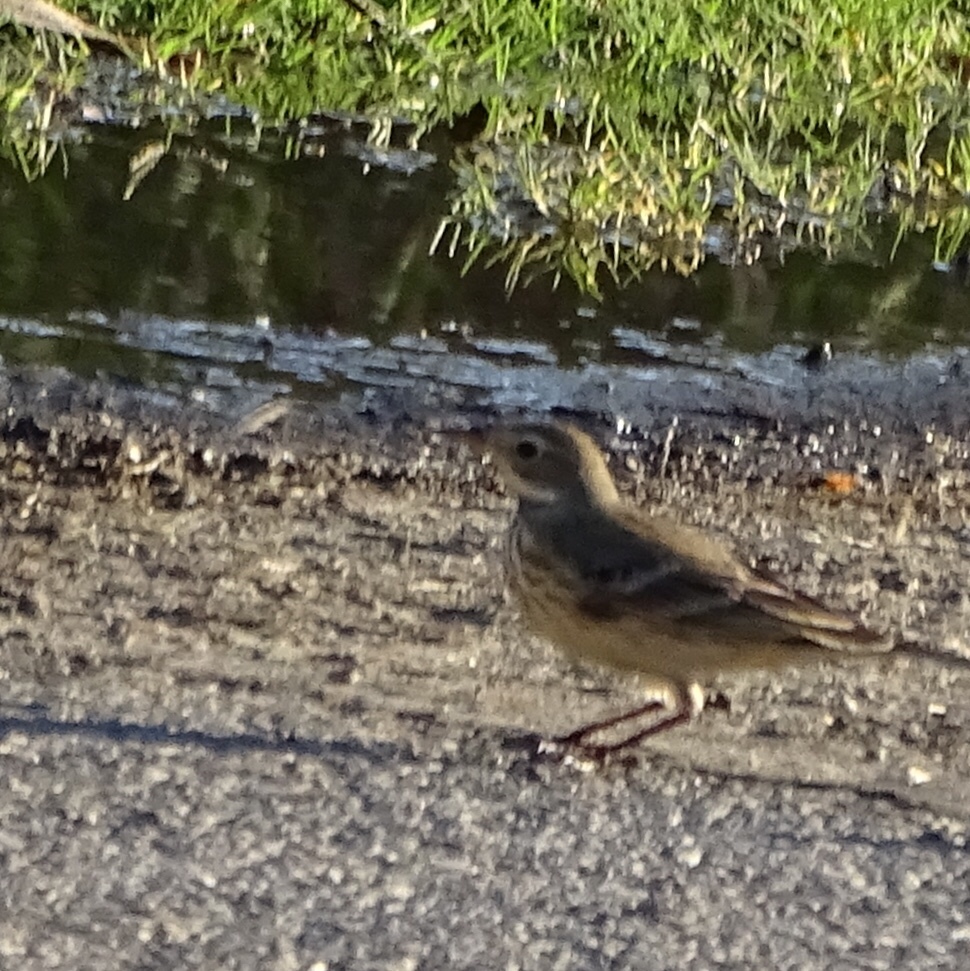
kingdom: Animalia
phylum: Chordata
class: Aves
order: Passeriformes
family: Motacillidae
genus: Anthus
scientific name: Anthus rubescens
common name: Buff-bellied pipit
